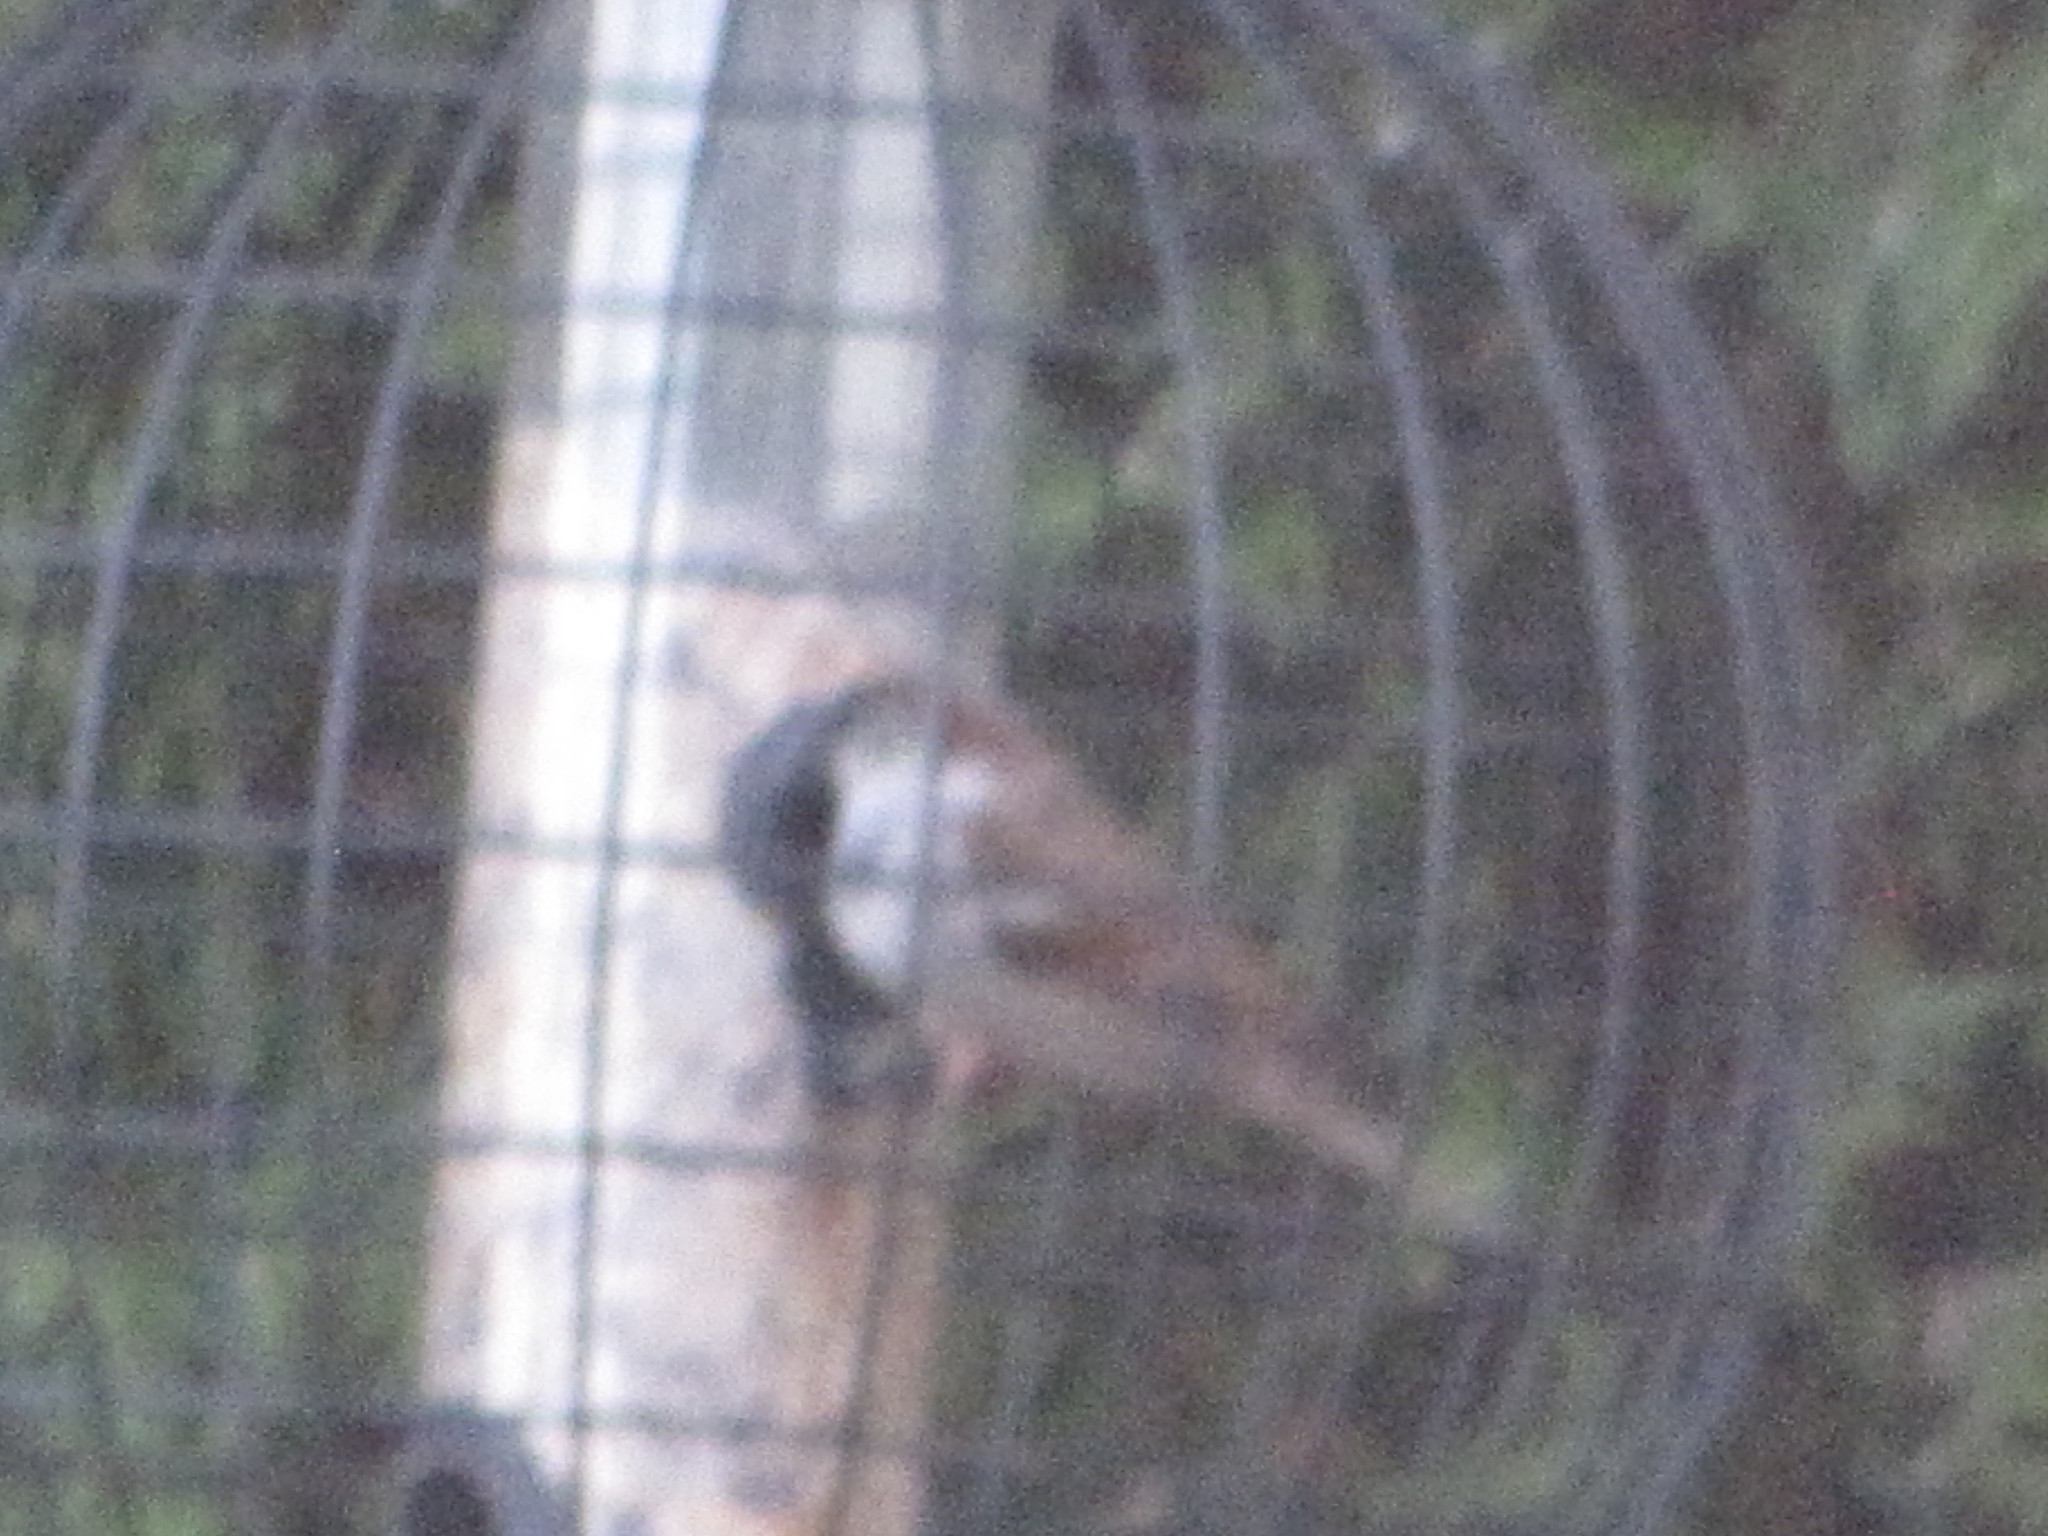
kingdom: Animalia
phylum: Chordata
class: Aves
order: Passeriformes
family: Passeridae
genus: Passer
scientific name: Passer domesticus
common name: House sparrow
